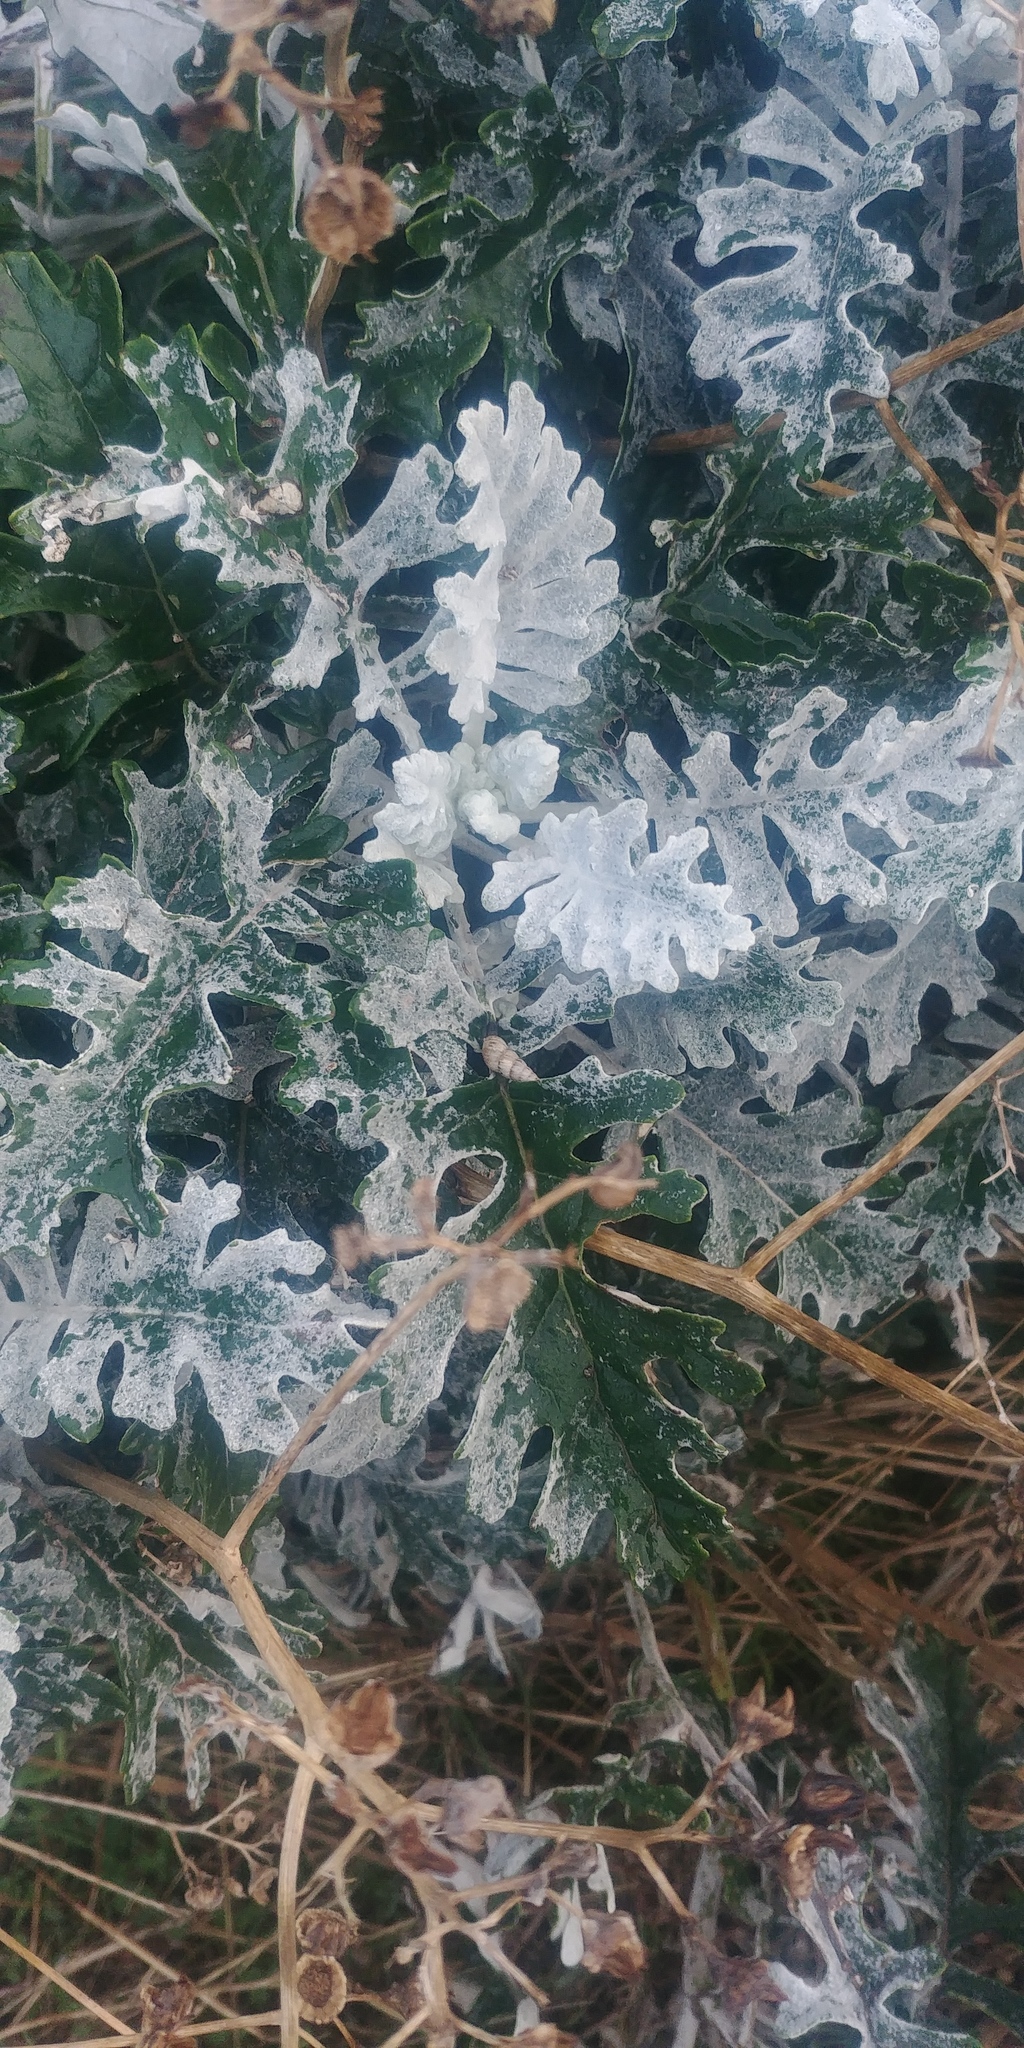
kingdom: Plantae
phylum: Tracheophyta
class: Magnoliopsida
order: Asterales
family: Asteraceae
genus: Jacobaea
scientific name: Jacobaea maritima
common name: Silver ragwort
